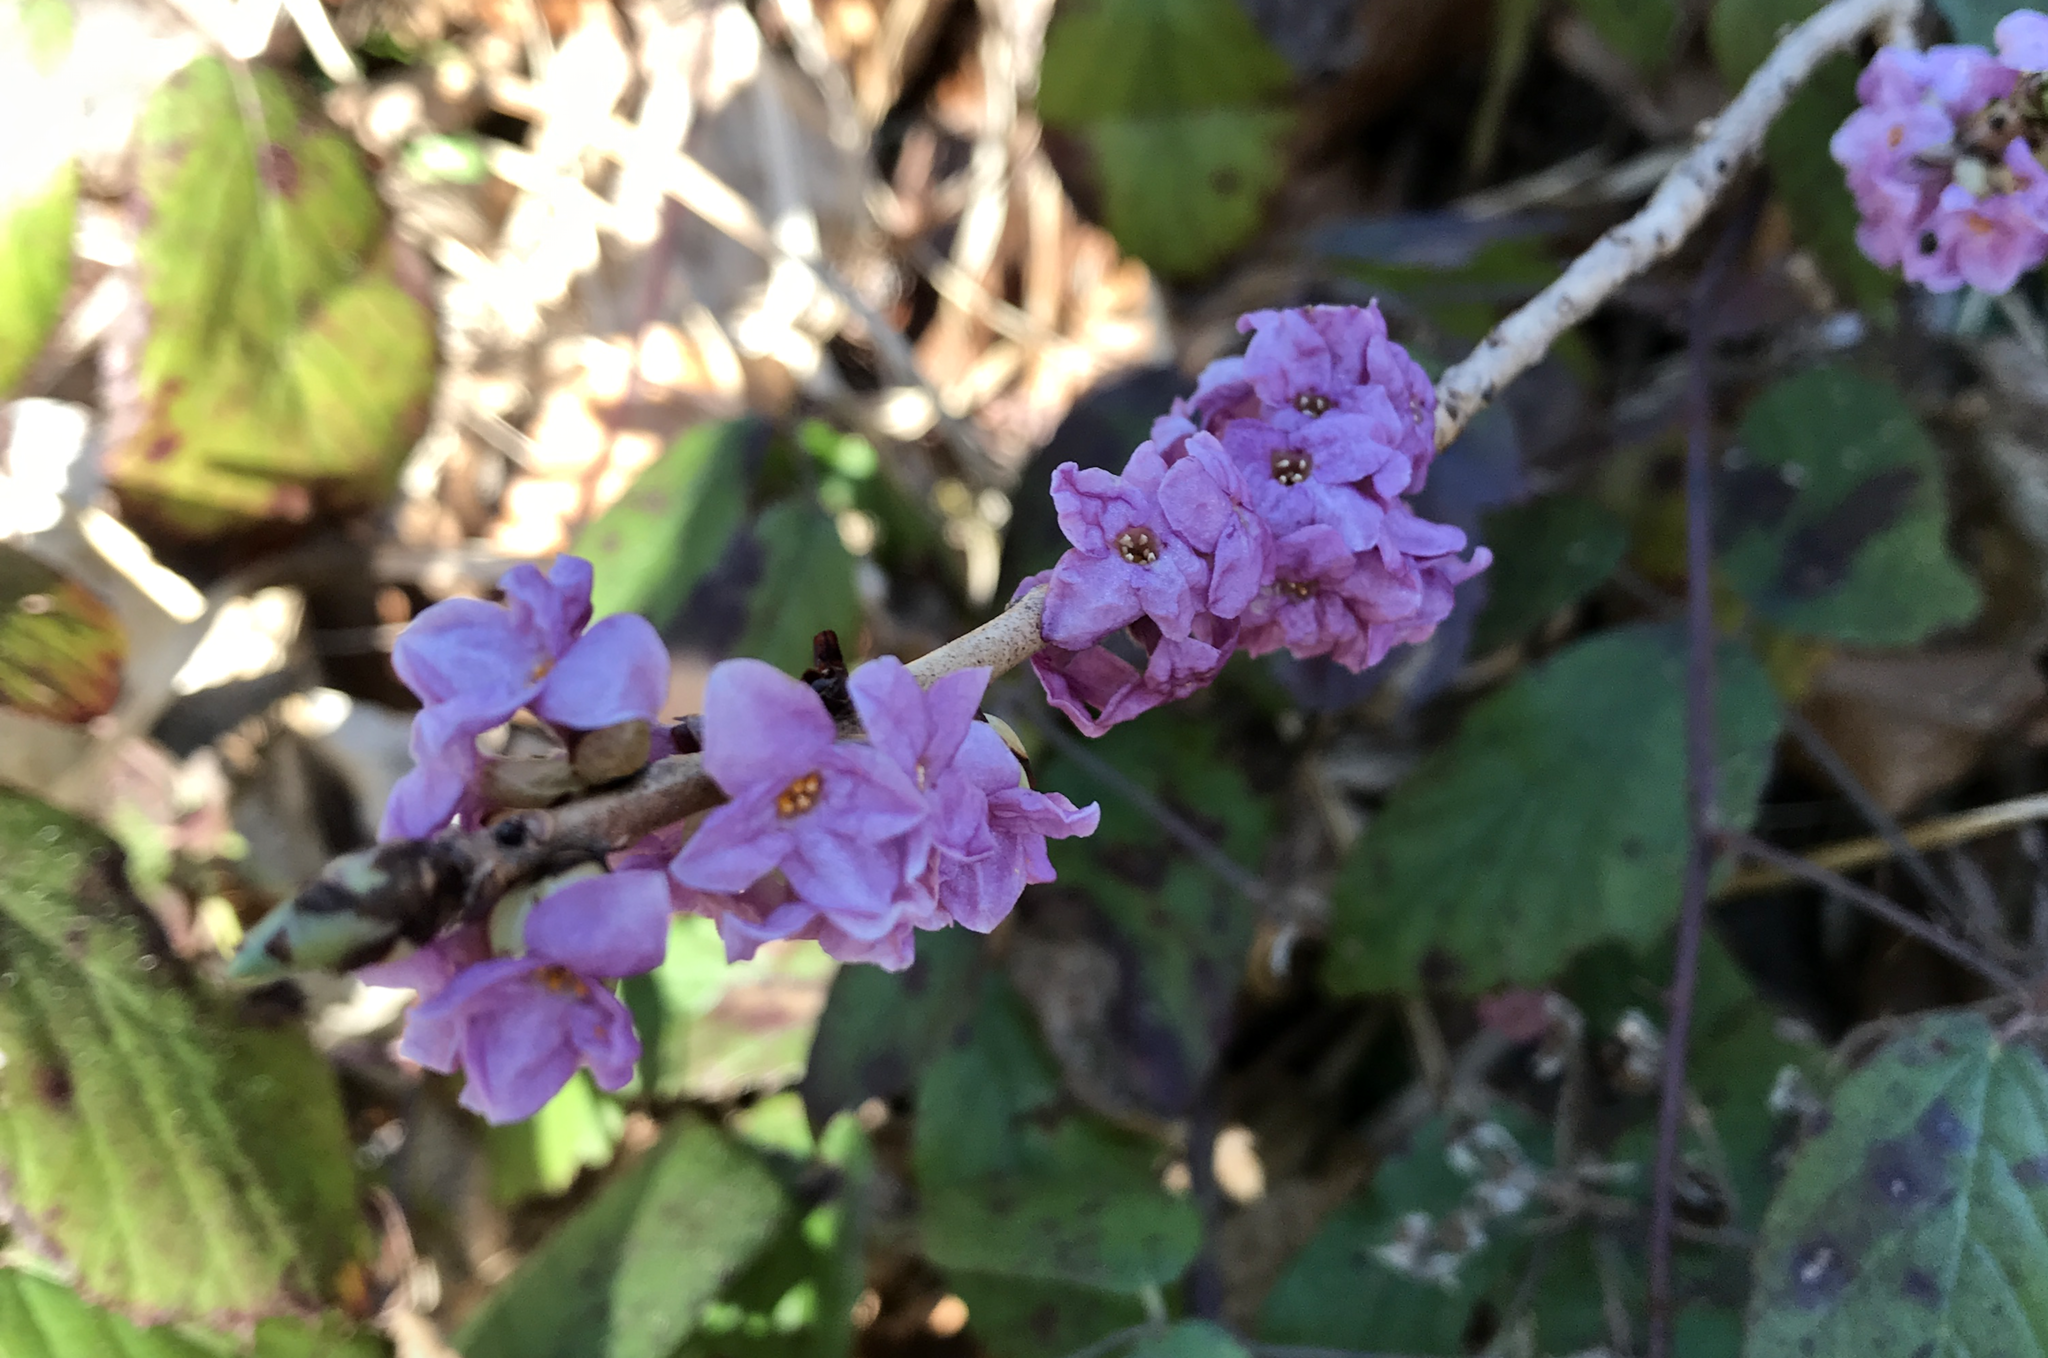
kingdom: Plantae
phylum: Tracheophyta
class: Magnoliopsida
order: Malvales
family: Thymelaeaceae
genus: Daphne
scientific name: Daphne mezereum
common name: Mezereon
